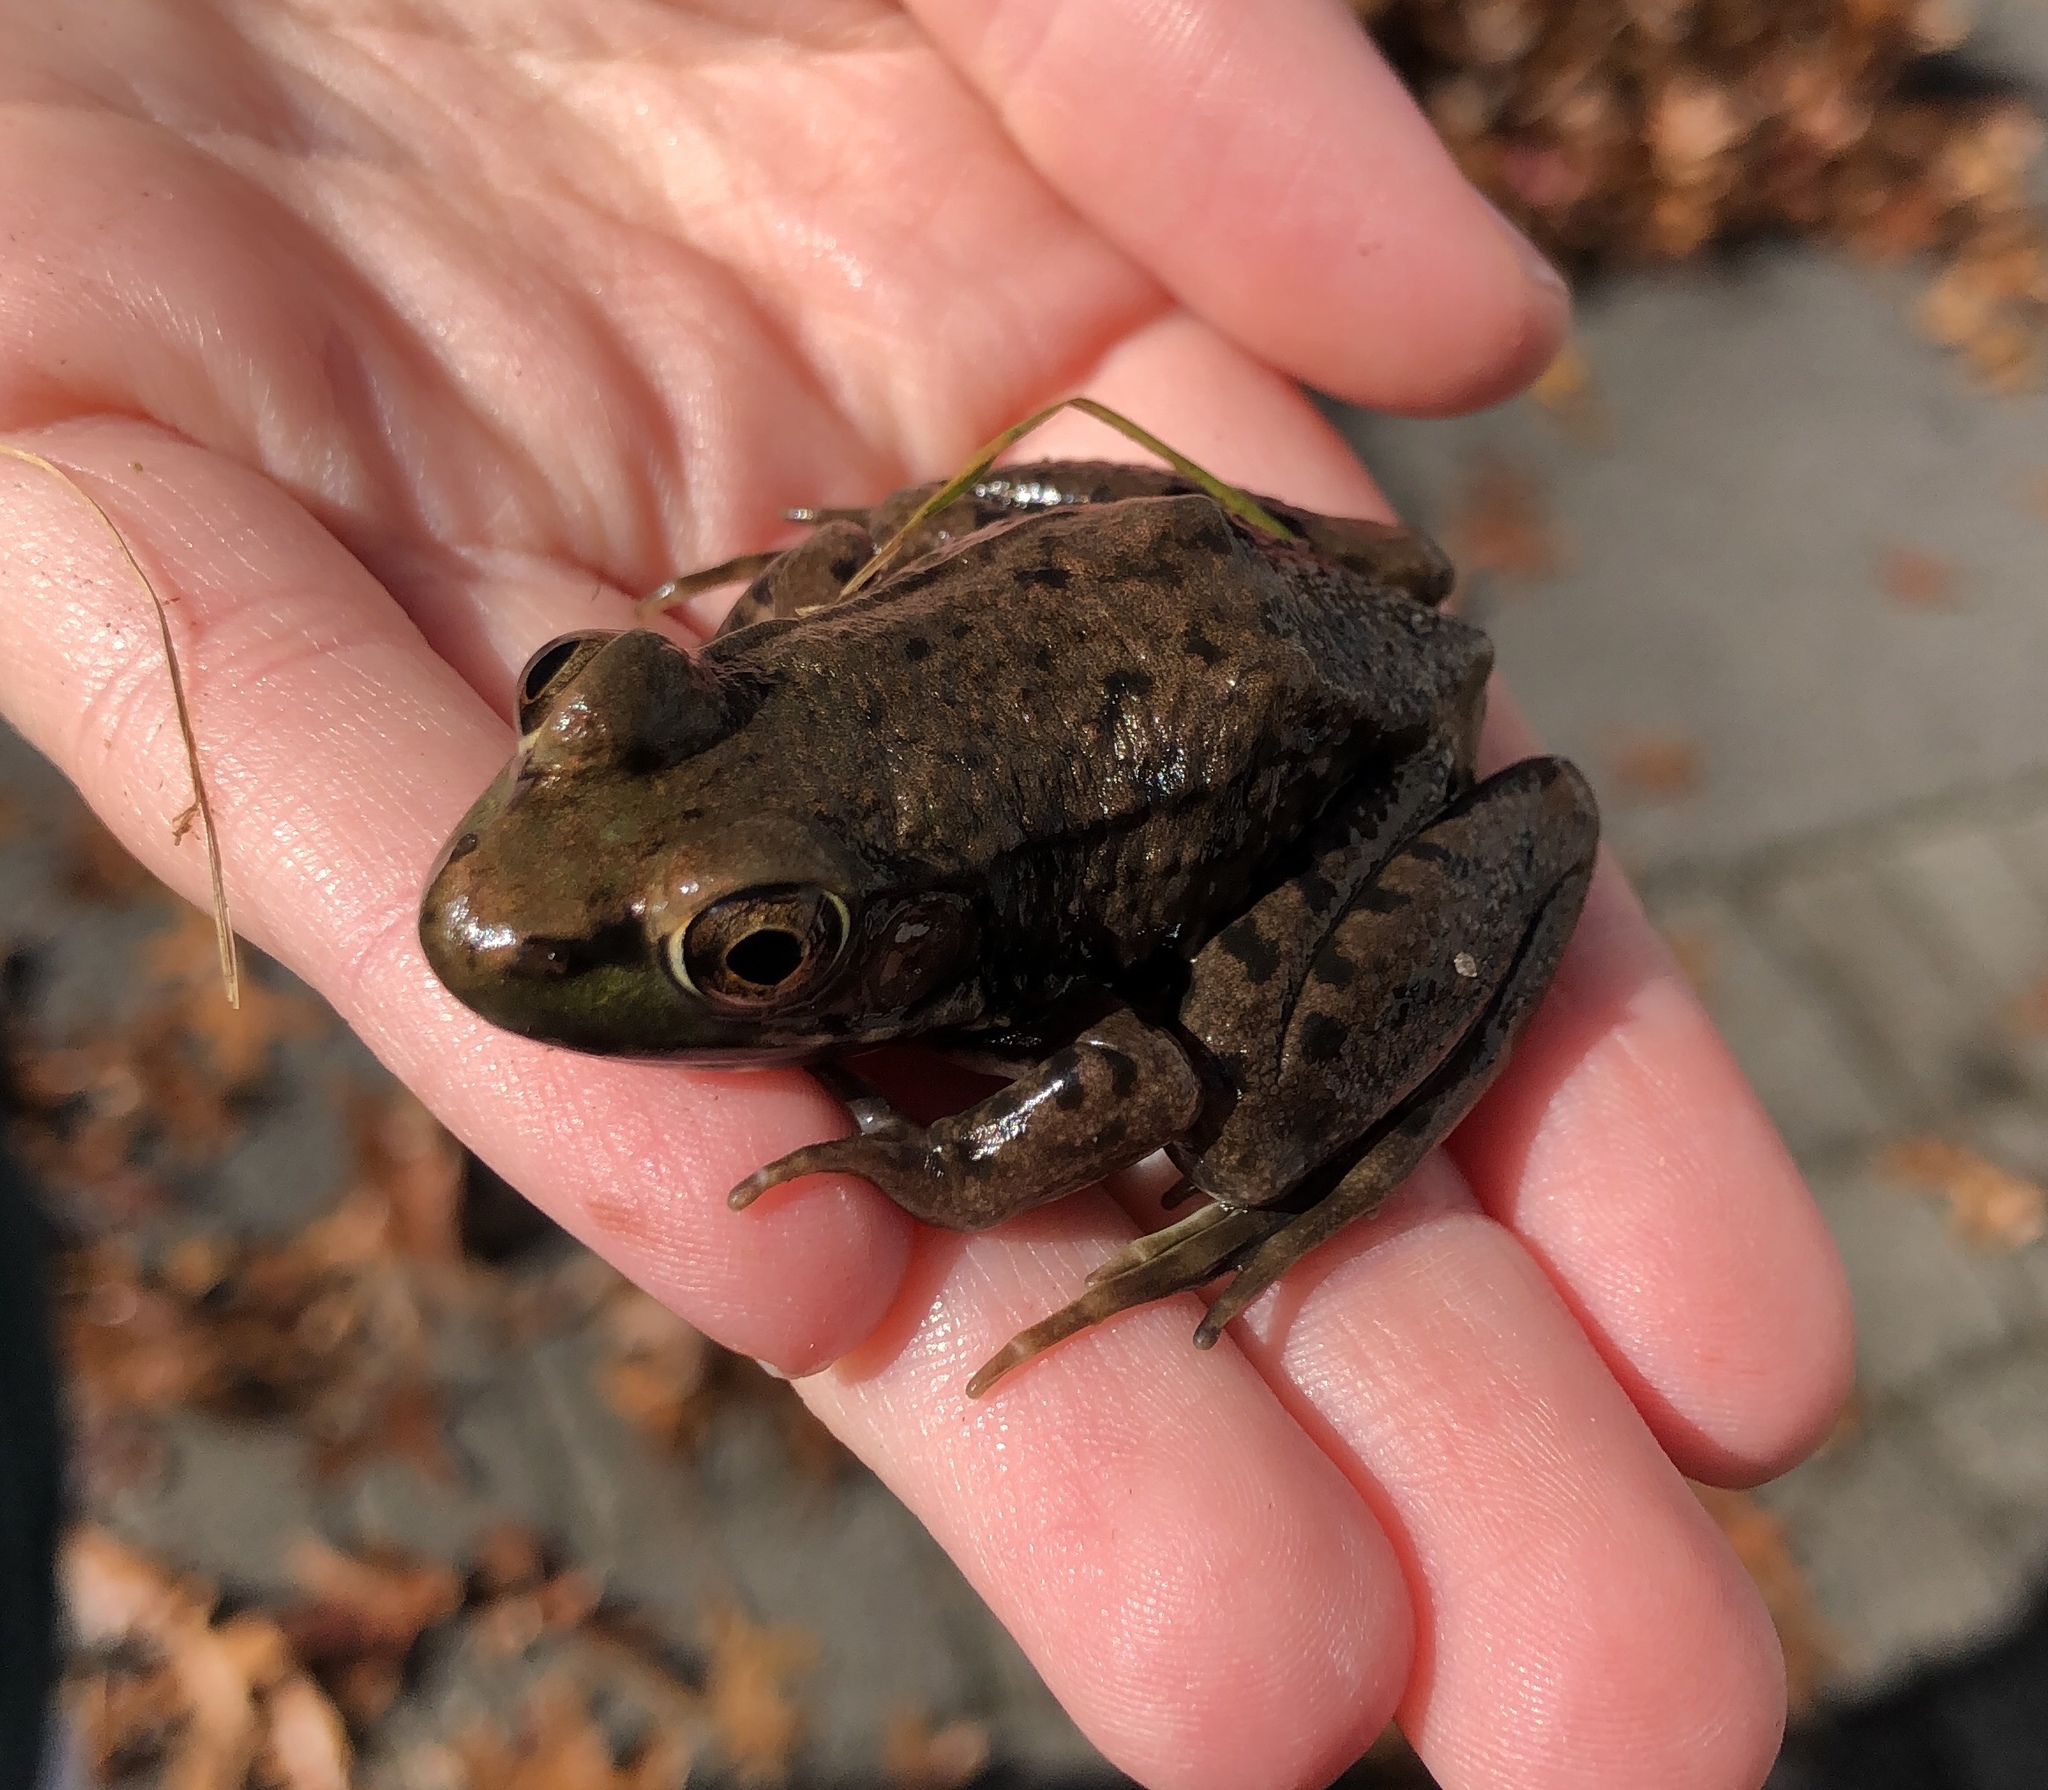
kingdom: Animalia
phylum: Chordata
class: Amphibia
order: Anura
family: Ranidae
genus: Lithobates
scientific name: Lithobates clamitans
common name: Green frog
